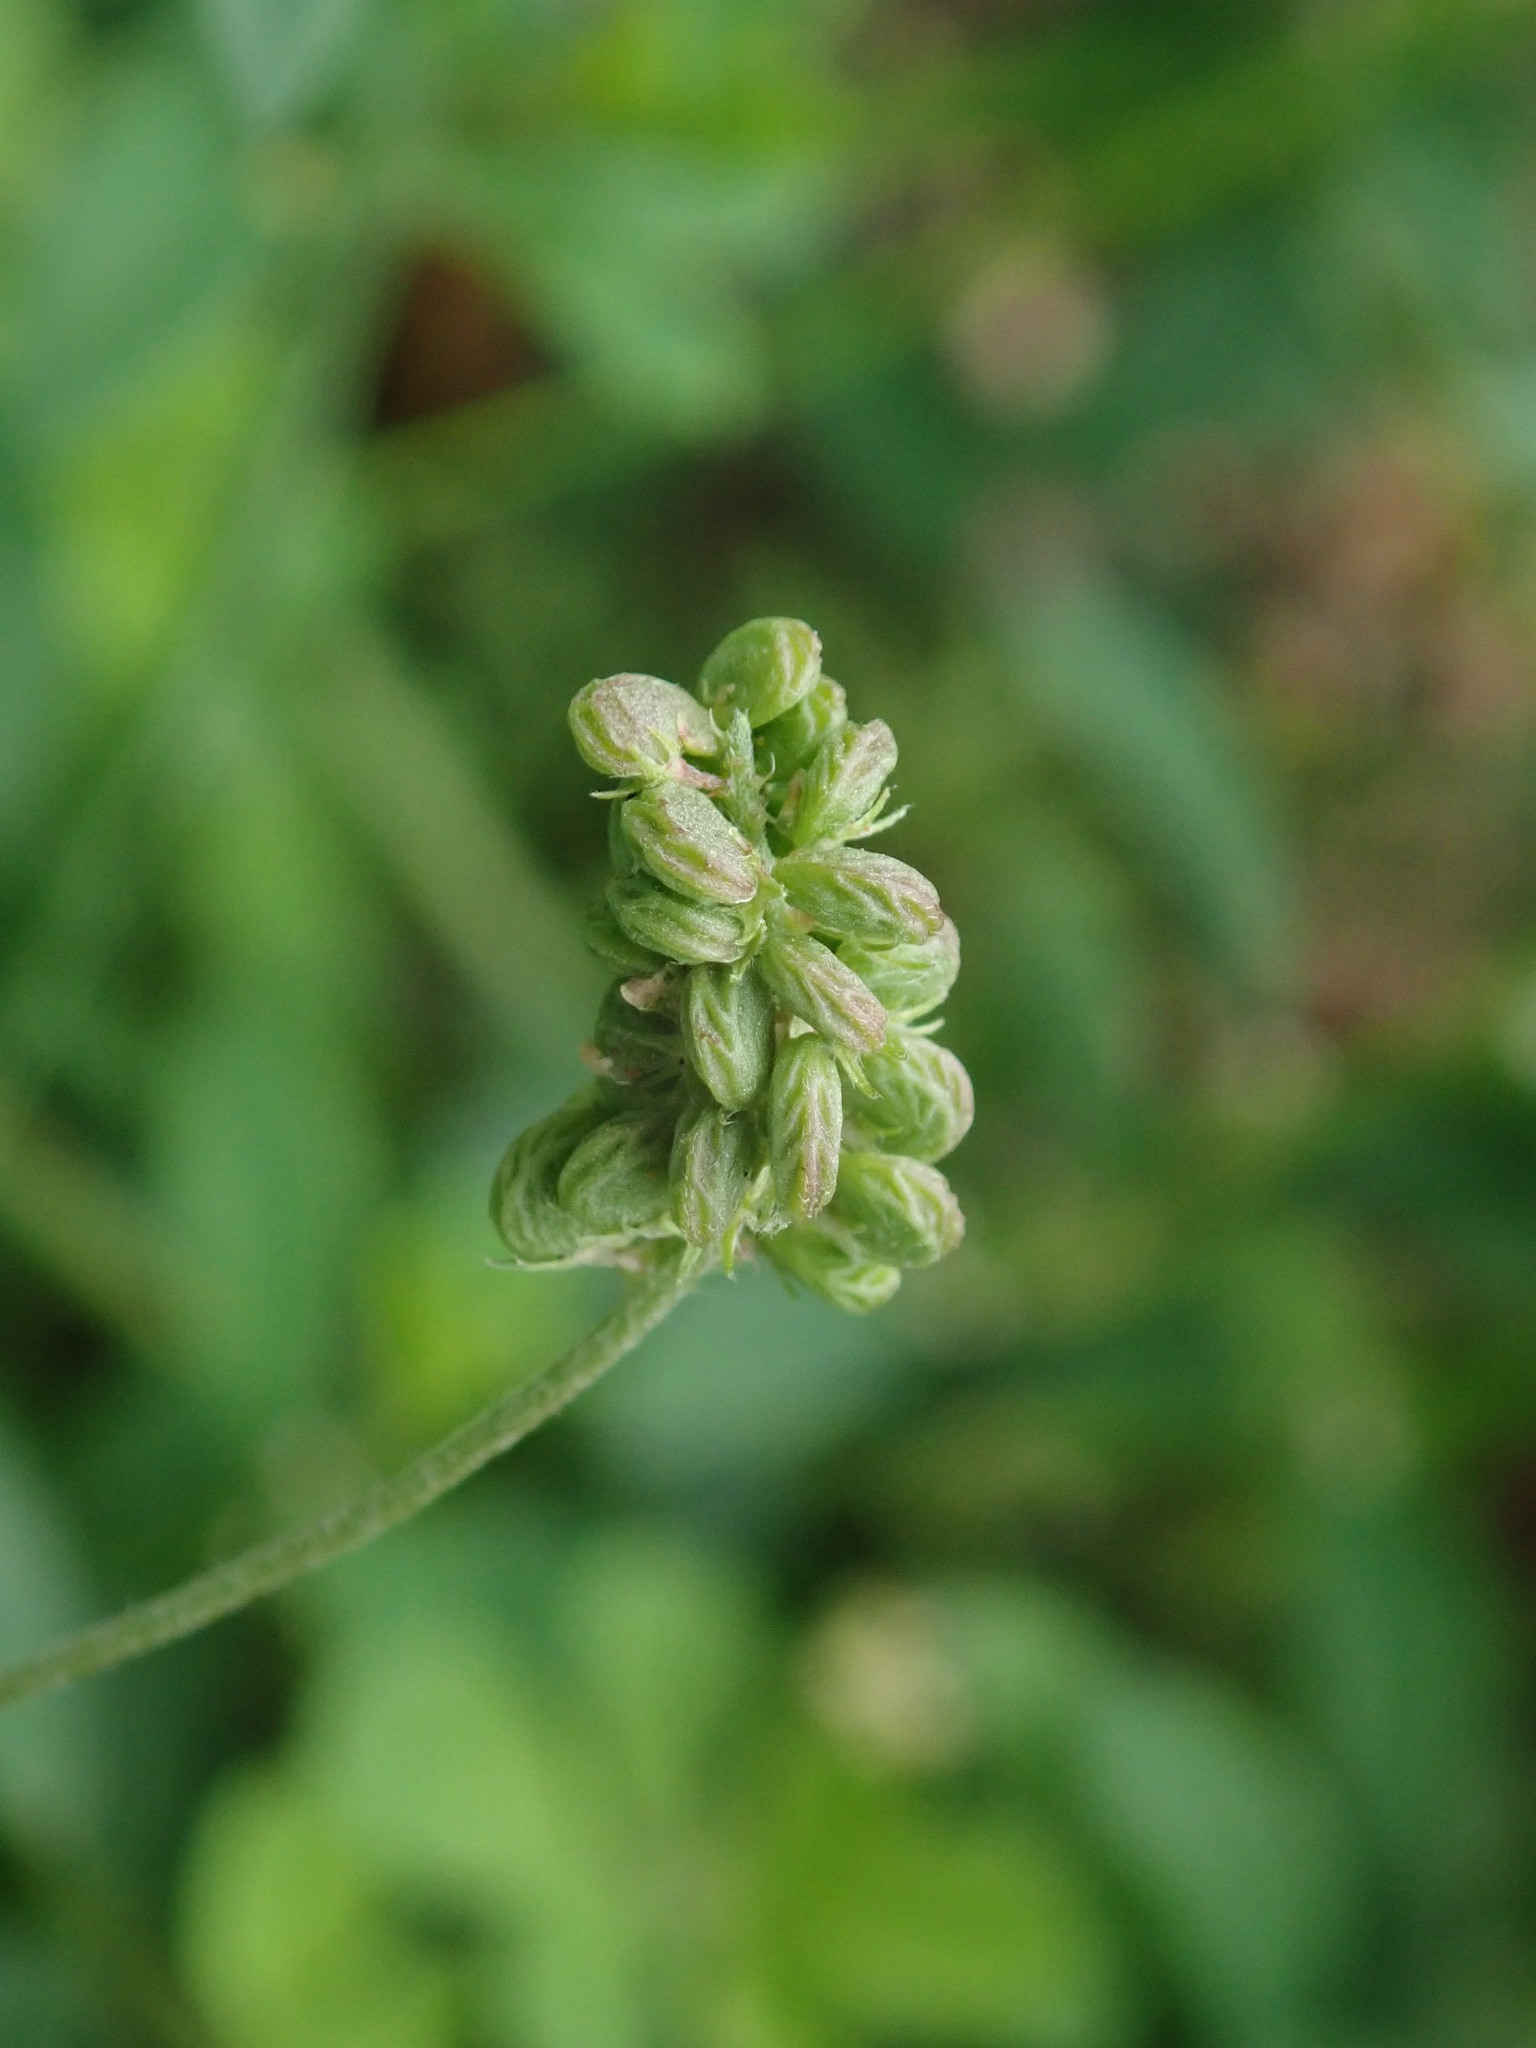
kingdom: Plantae
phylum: Tracheophyta
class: Magnoliopsida
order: Fabales
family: Fabaceae
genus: Medicago
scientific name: Medicago lupulina
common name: Black medick
